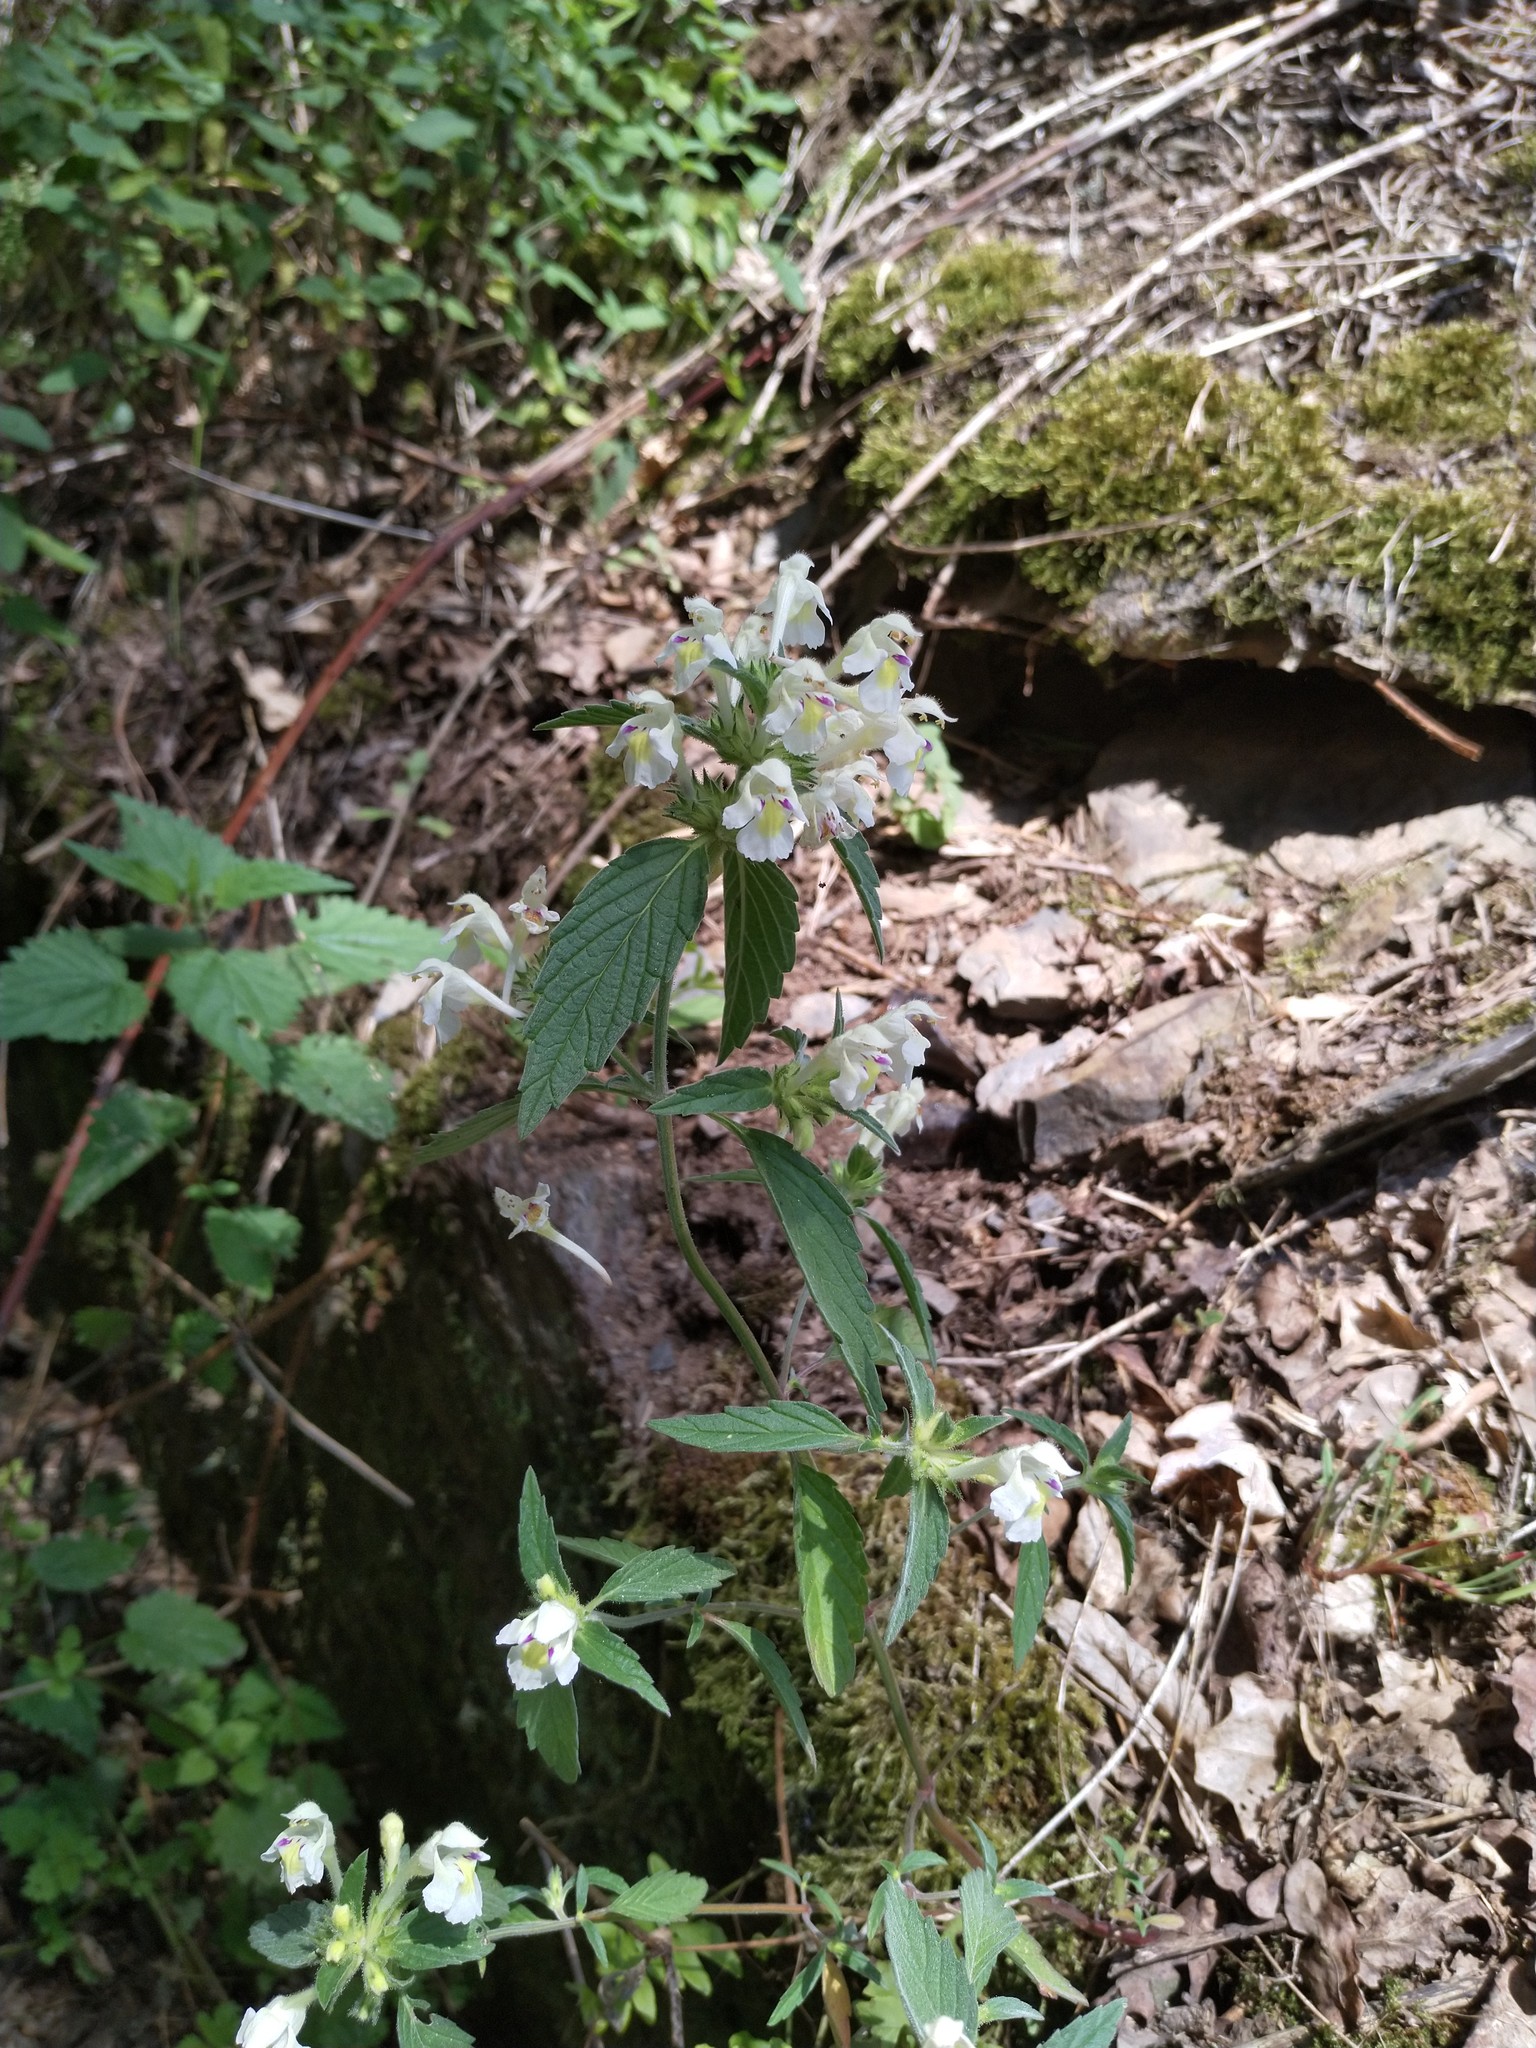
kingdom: Plantae
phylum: Tracheophyta
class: Magnoliopsida
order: Lamiales
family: Lamiaceae
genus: Galeopsis
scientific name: Galeopsis segetum
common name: Downy hemp-nettle
